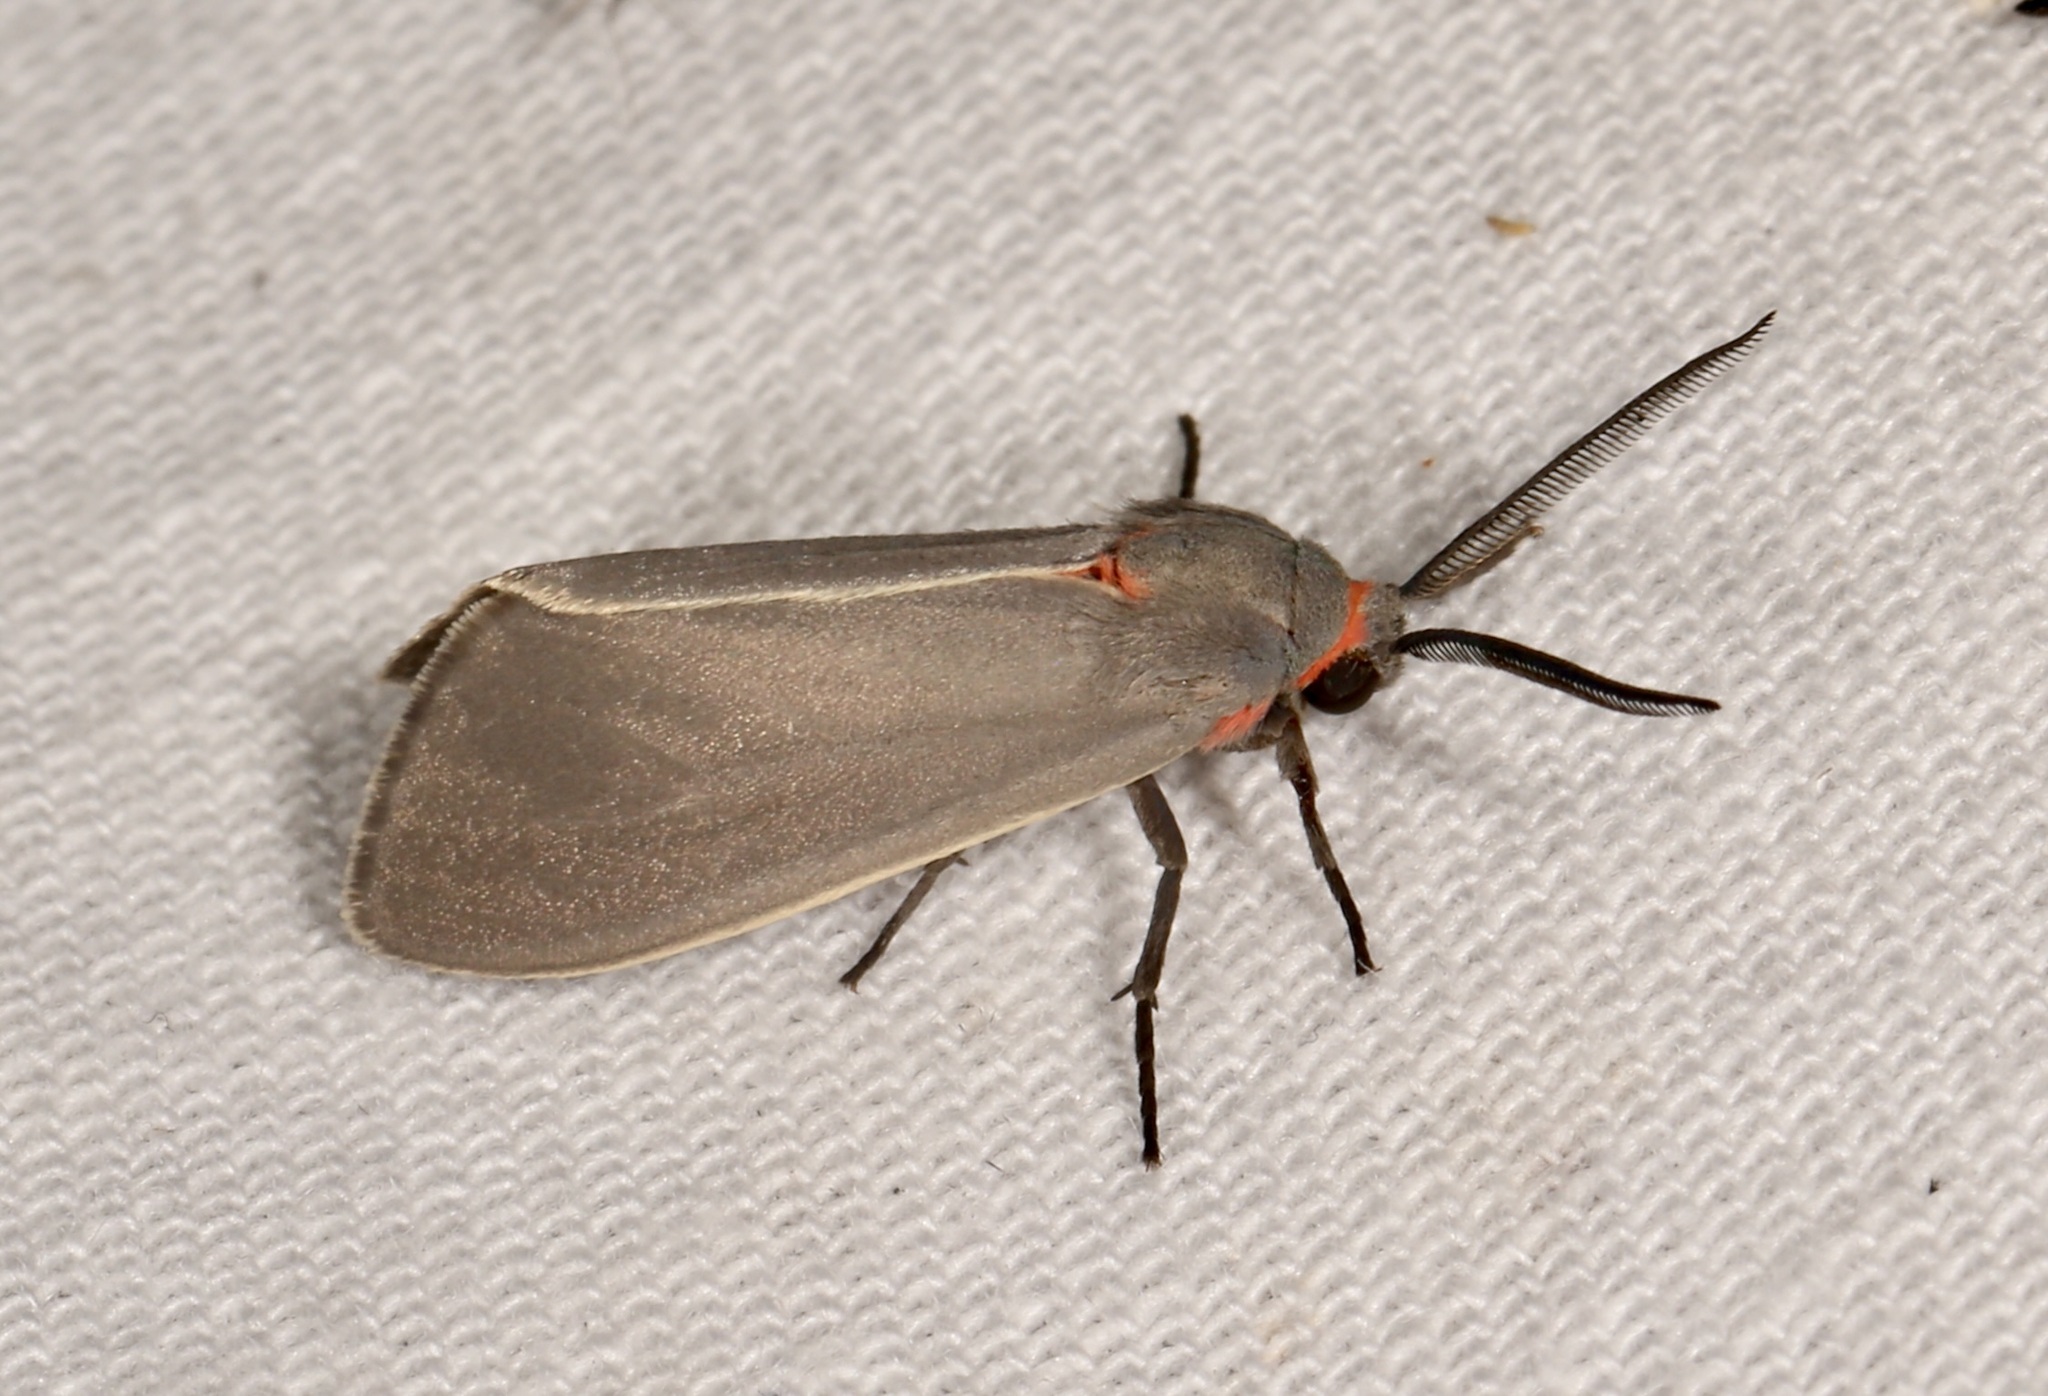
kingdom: Animalia
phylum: Arthropoda
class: Insecta
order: Lepidoptera
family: Erebidae
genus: Pygarctia
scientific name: Pygarctia murina
